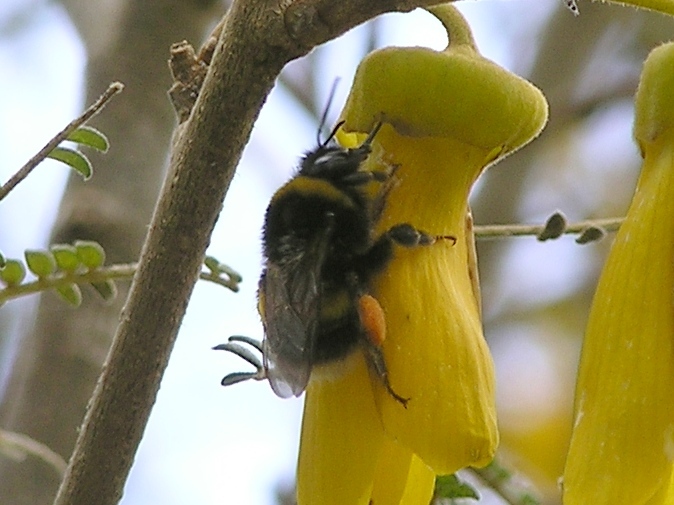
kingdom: Animalia
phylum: Arthropoda
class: Insecta
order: Hymenoptera
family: Apidae
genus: Bombus
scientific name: Bombus terrestris
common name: Buff-tailed bumblebee
